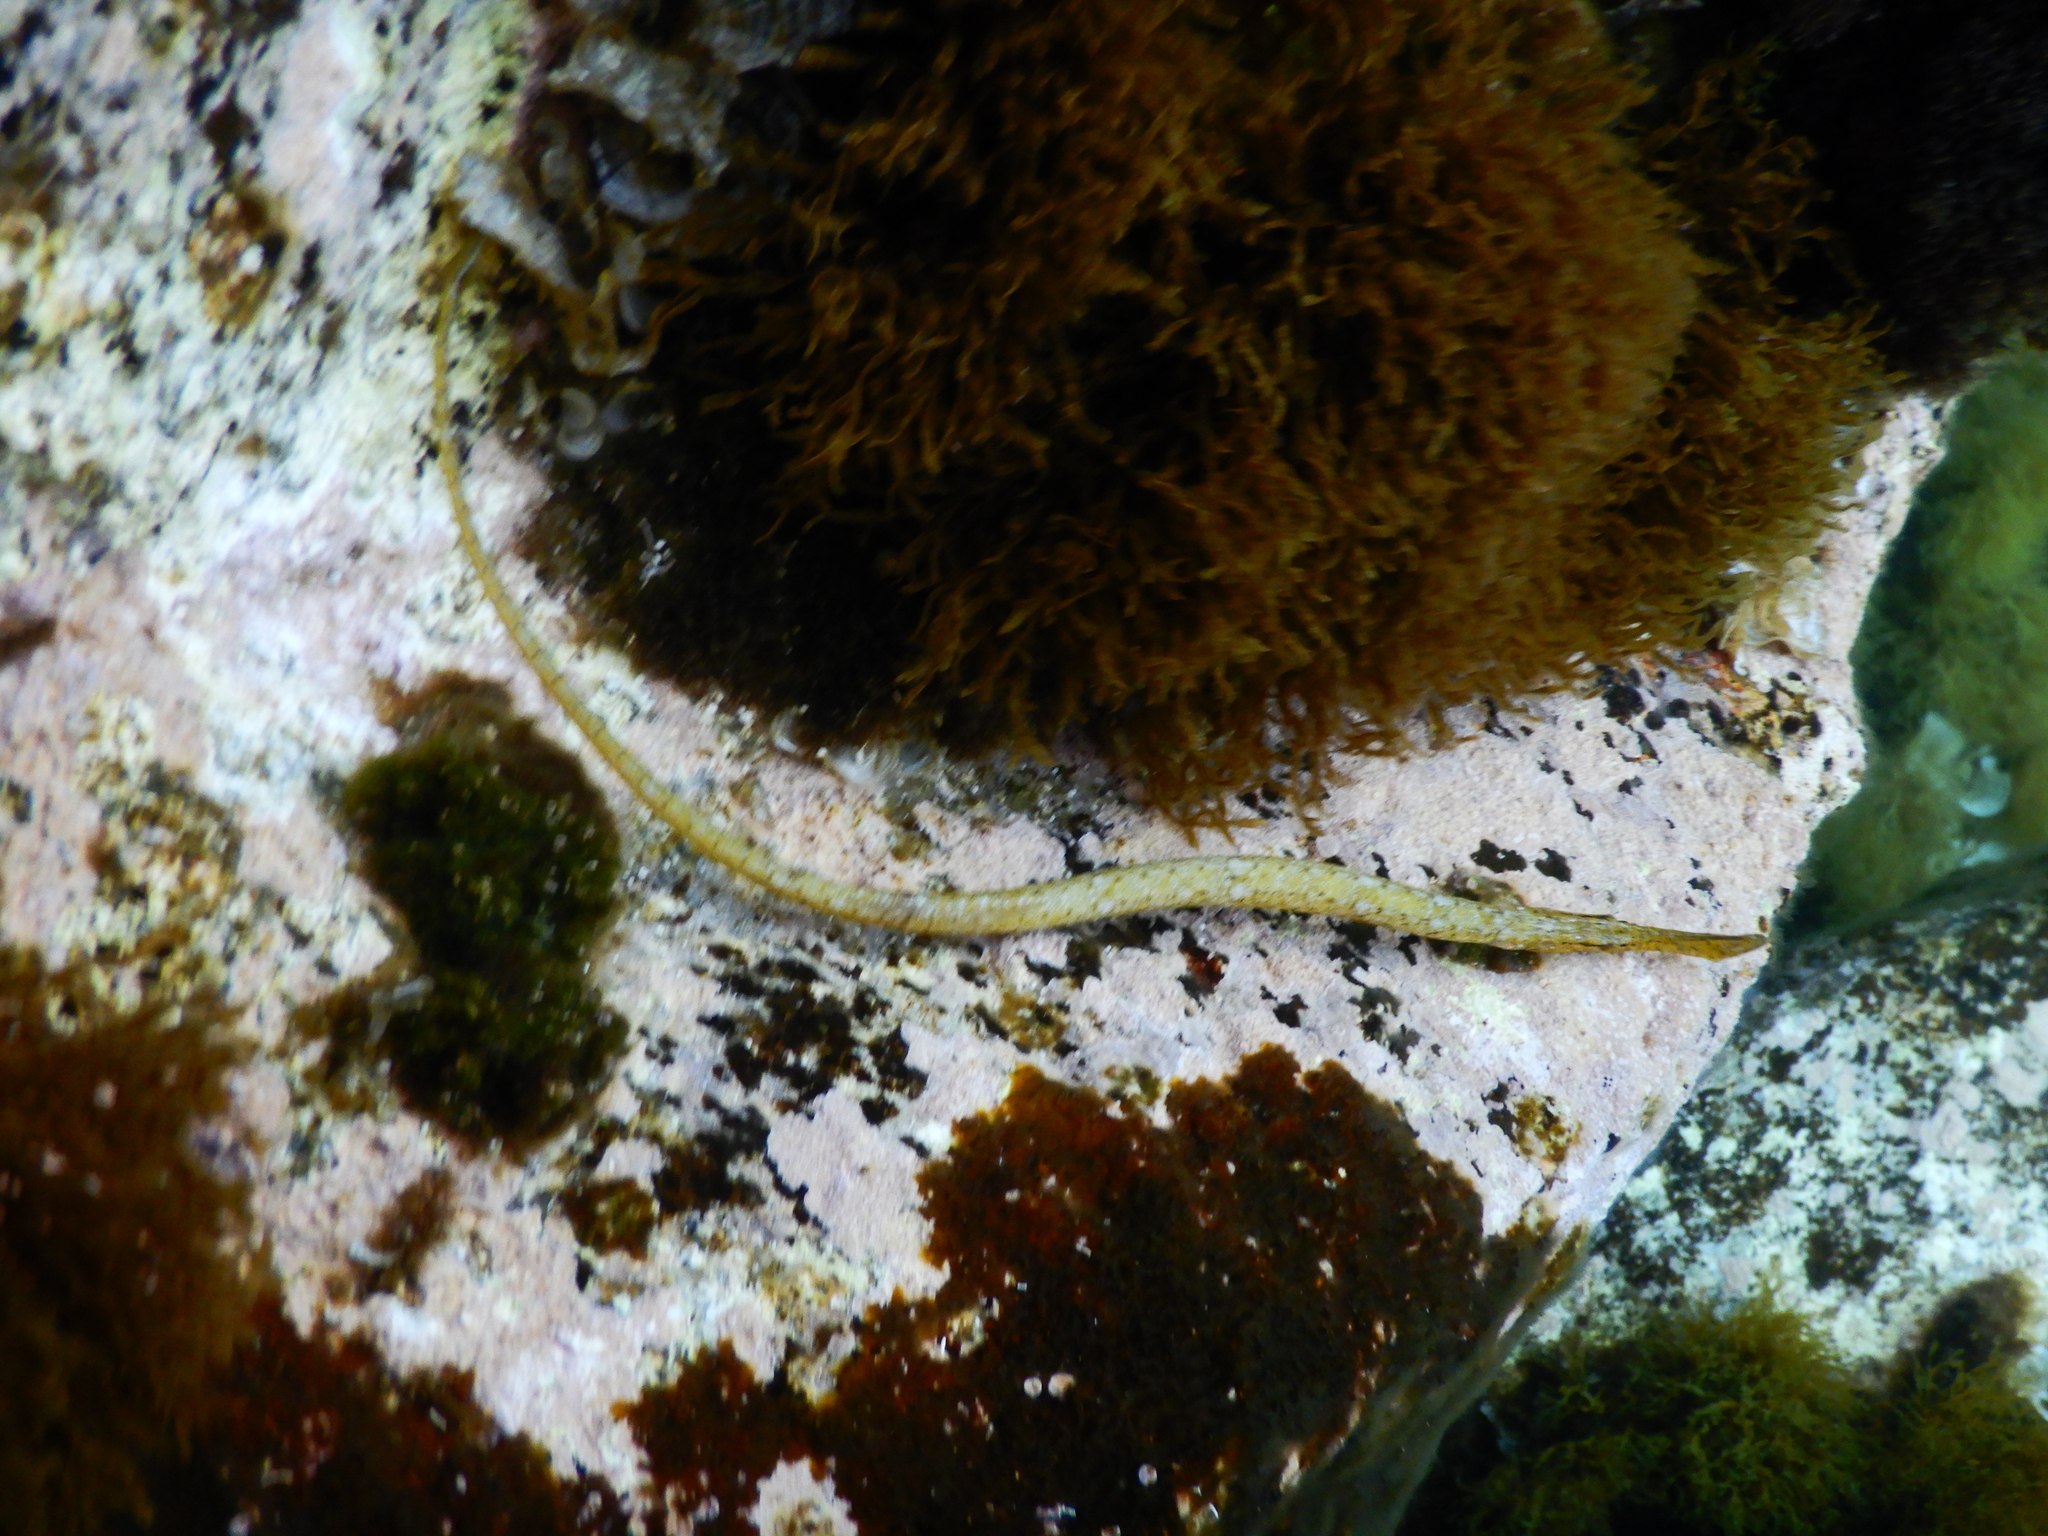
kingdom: Animalia
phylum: Chordata
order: Syngnathiformes
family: Syngnathidae
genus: Syngnathus
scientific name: Syngnathus typhle
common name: Deep-snouted pipefish
